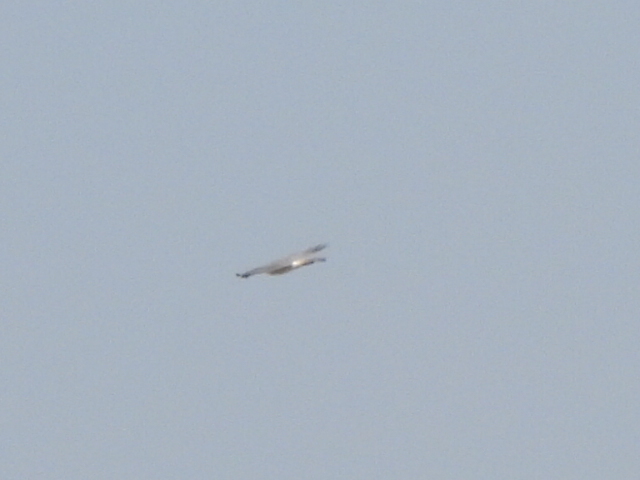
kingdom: Animalia
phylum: Chordata
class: Aves
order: Accipitriformes
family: Accipitridae
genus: Accipiter
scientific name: Accipiter badius
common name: Shikra
